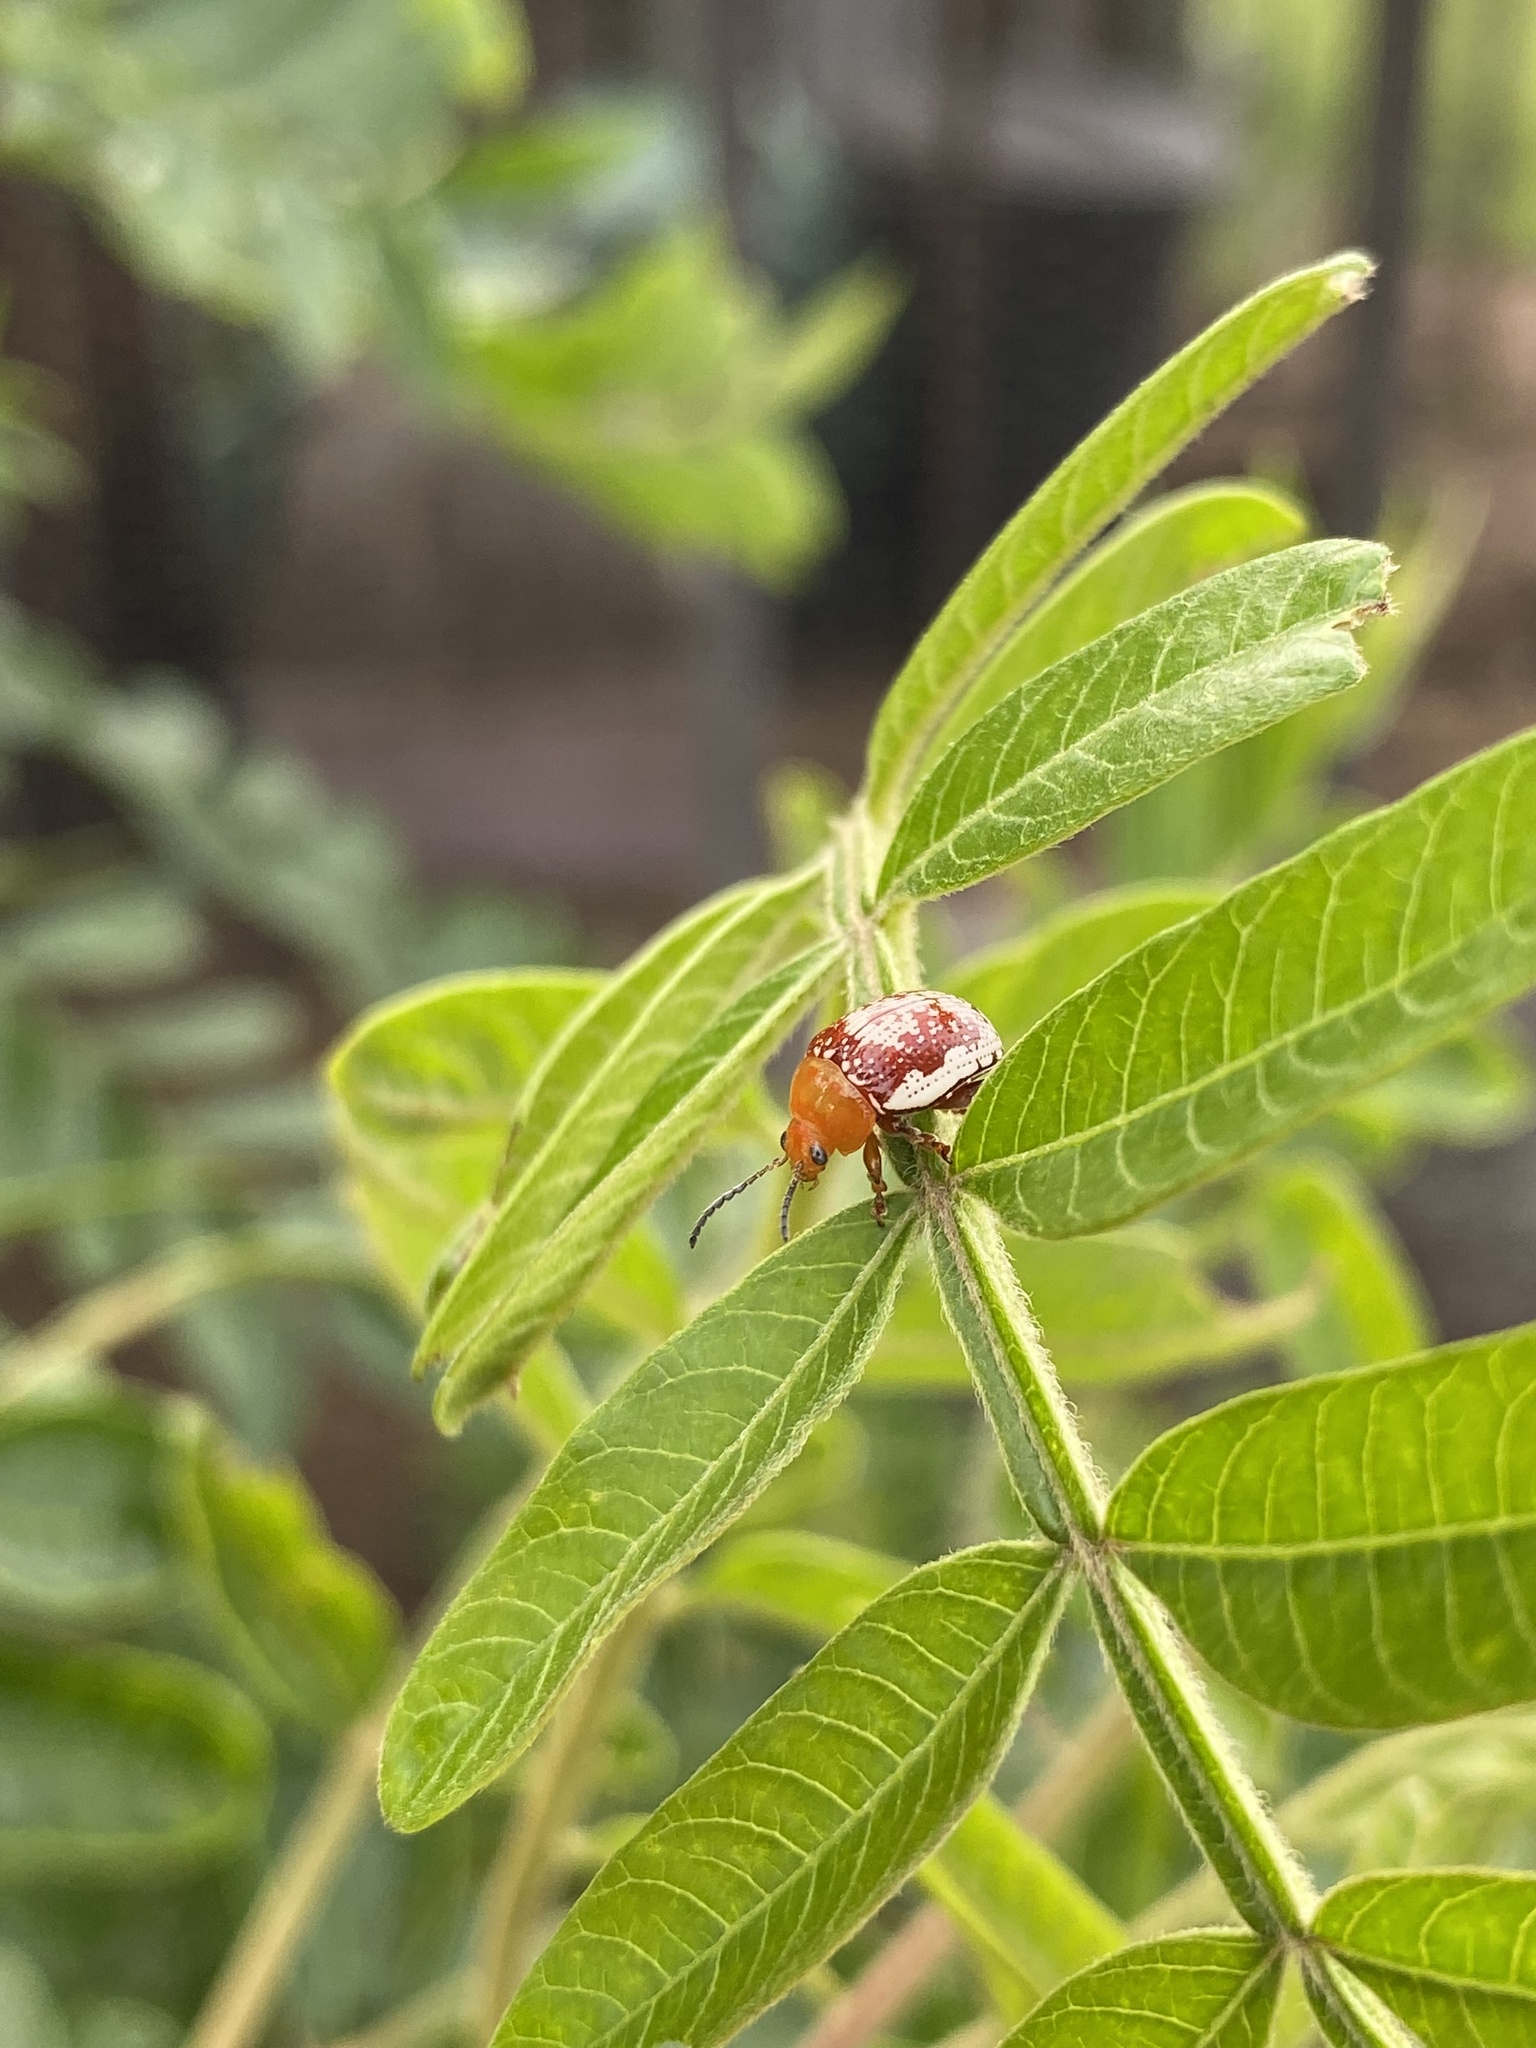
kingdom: Animalia
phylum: Arthropoda
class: Insecta
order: Coleoptera
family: Chrysomelidae
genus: Blepharida
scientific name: Blepharida rhois
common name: Sumac flea beetle
